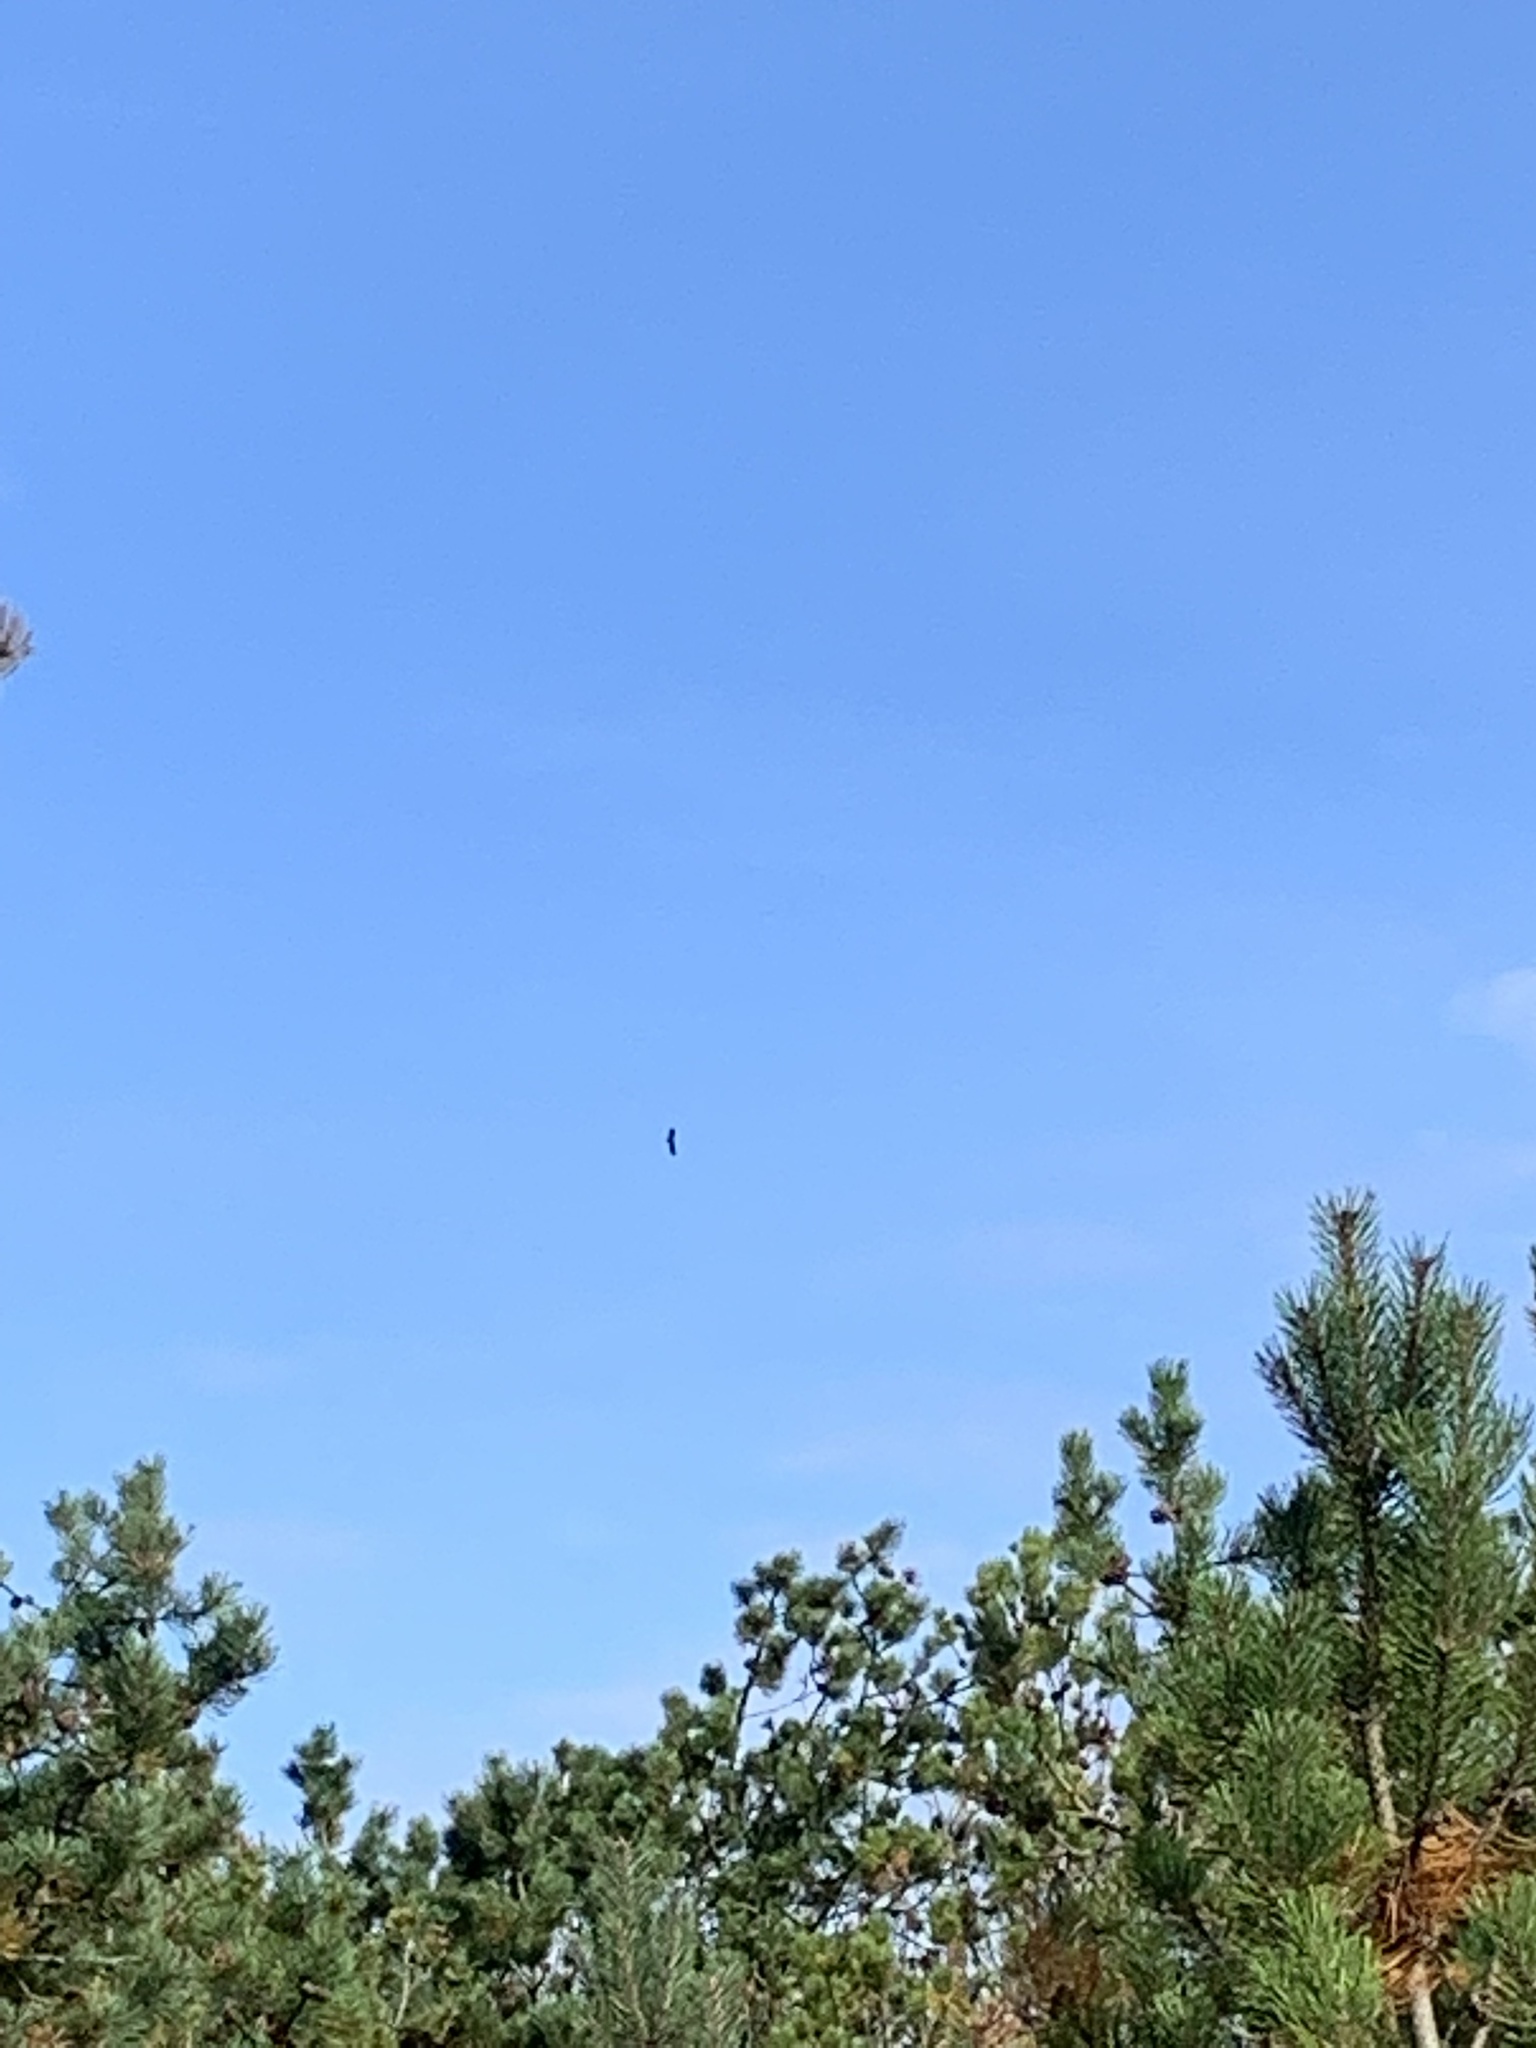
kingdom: Animalia
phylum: Chordata
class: Aves
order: Accipitriformes
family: Accipitridae
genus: Haliaeetus
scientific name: Haliaeetus albicilla
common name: White-tailed eagle
